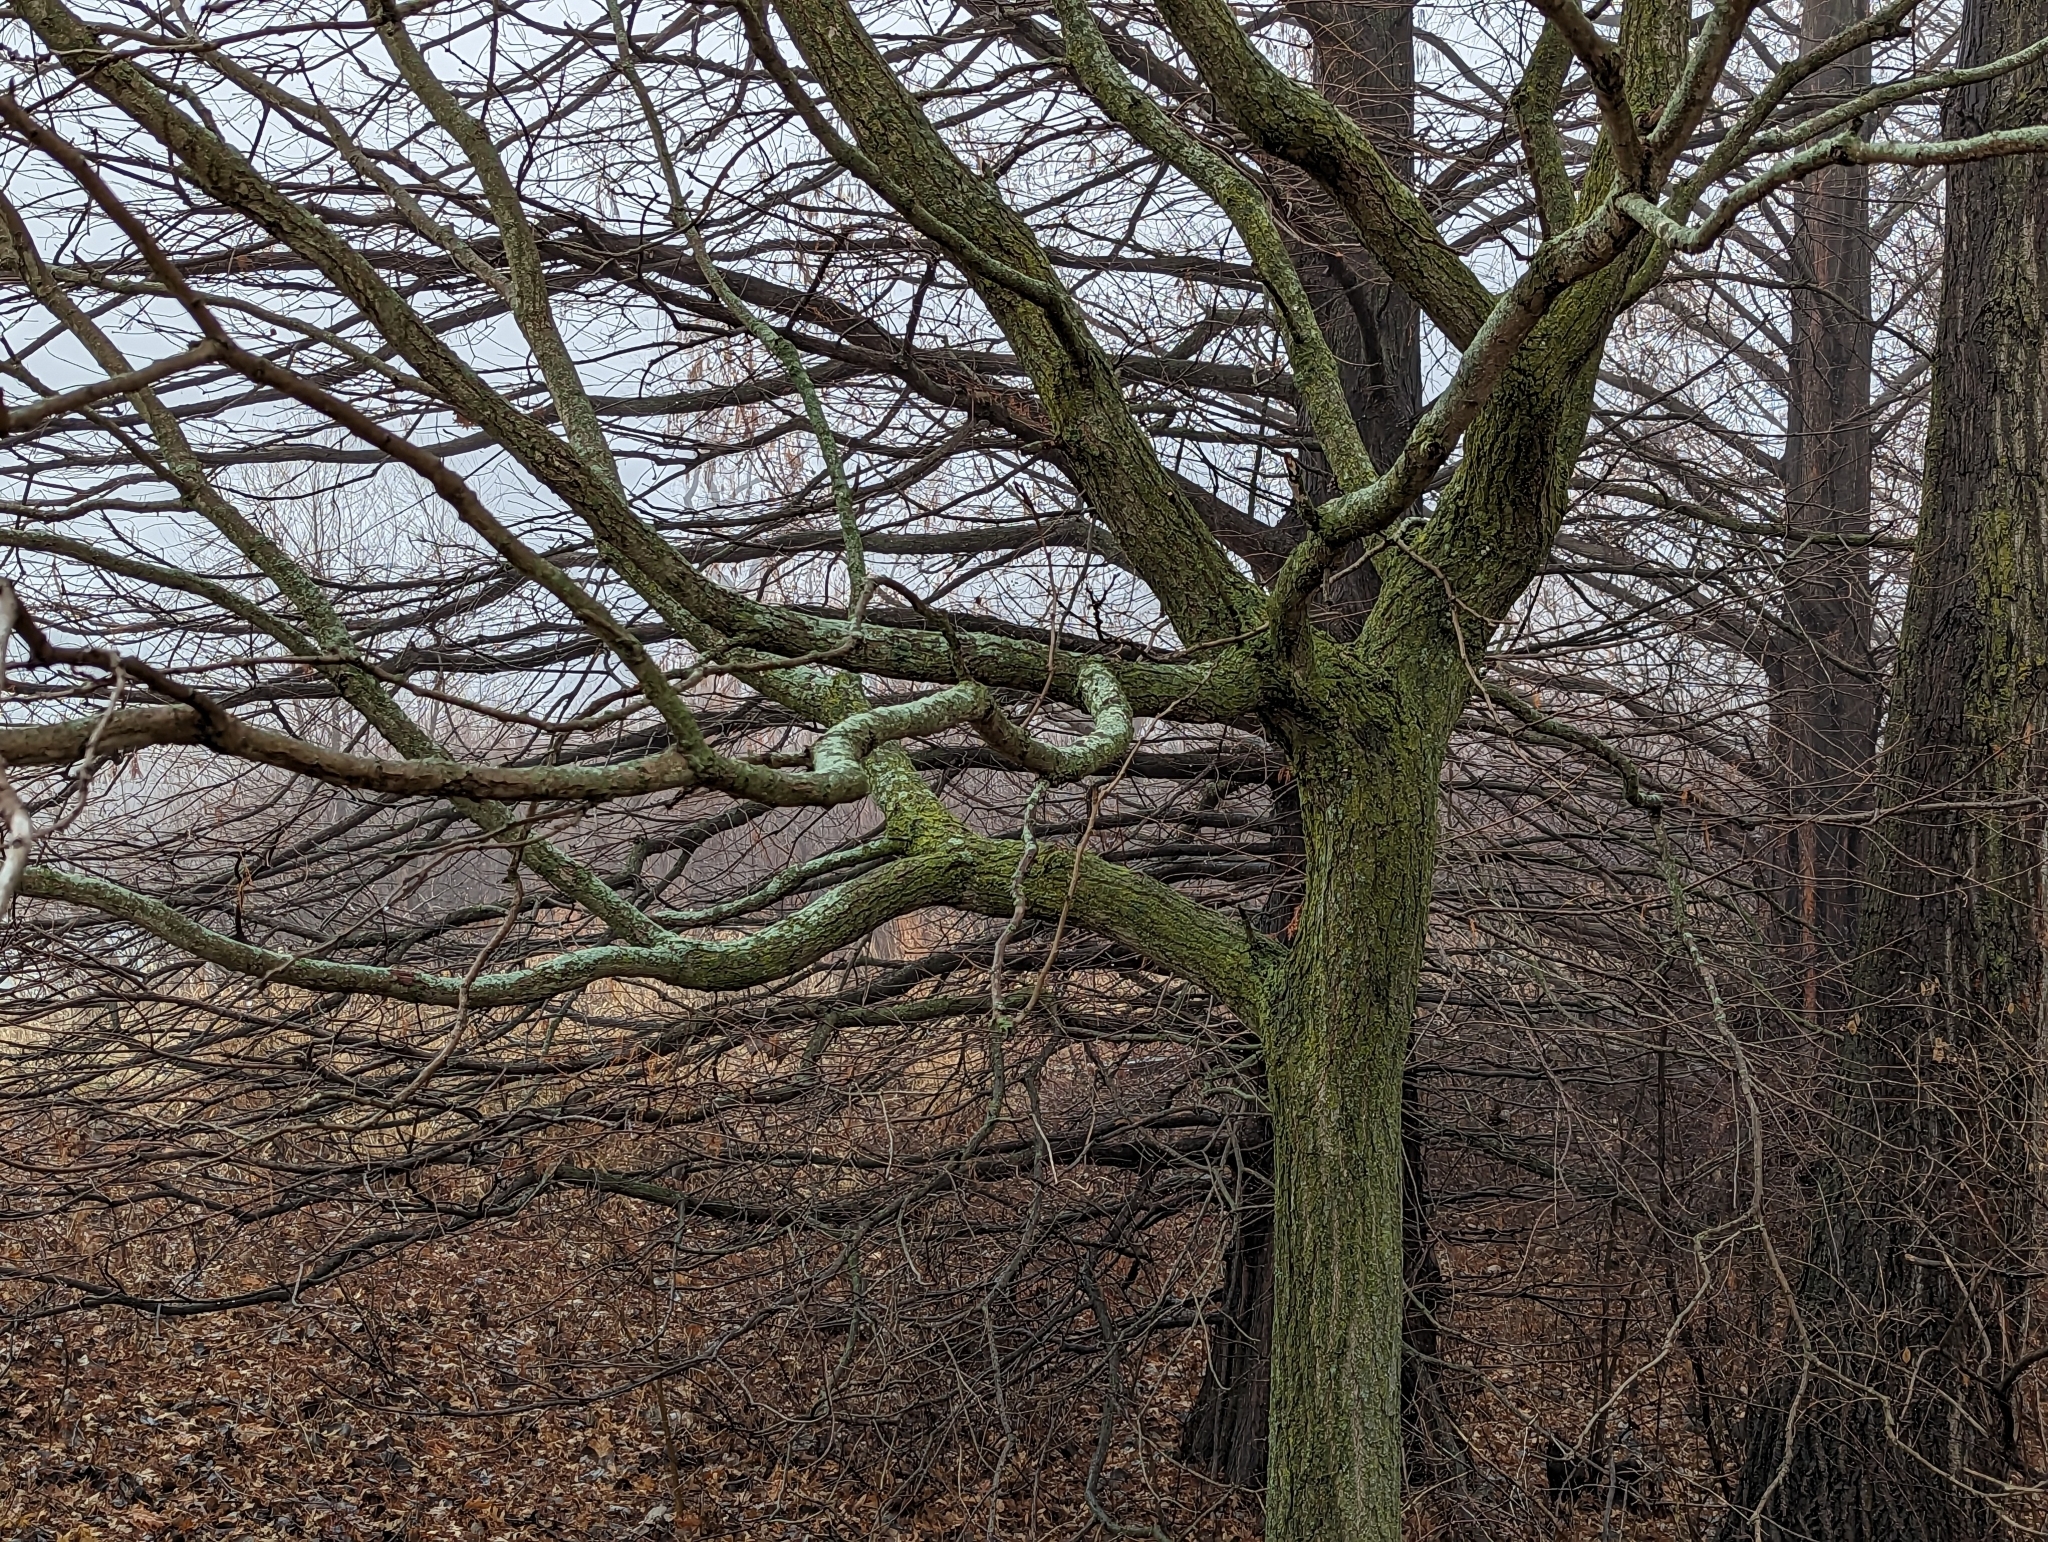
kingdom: Plantae
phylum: Tracheophyta
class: Magnoliopsida
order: Sapindales
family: Sapindaceae
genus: Koelreuteria
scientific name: Koelreuteria paniculata
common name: Pride-of-india
